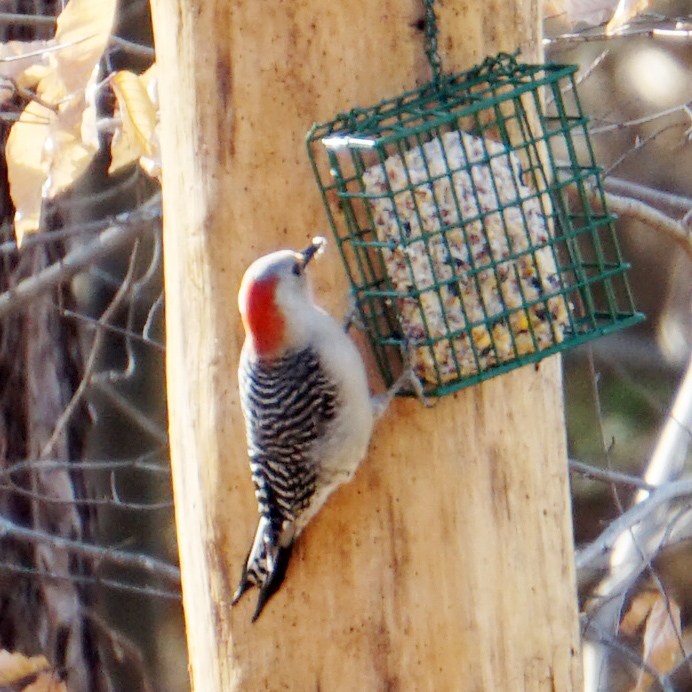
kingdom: Animalia
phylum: Chordata
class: Aves
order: Piciformes
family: Picidae
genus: Melanerpes
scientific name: Melanerpes carolinus
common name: Red-bellied woodpecker
